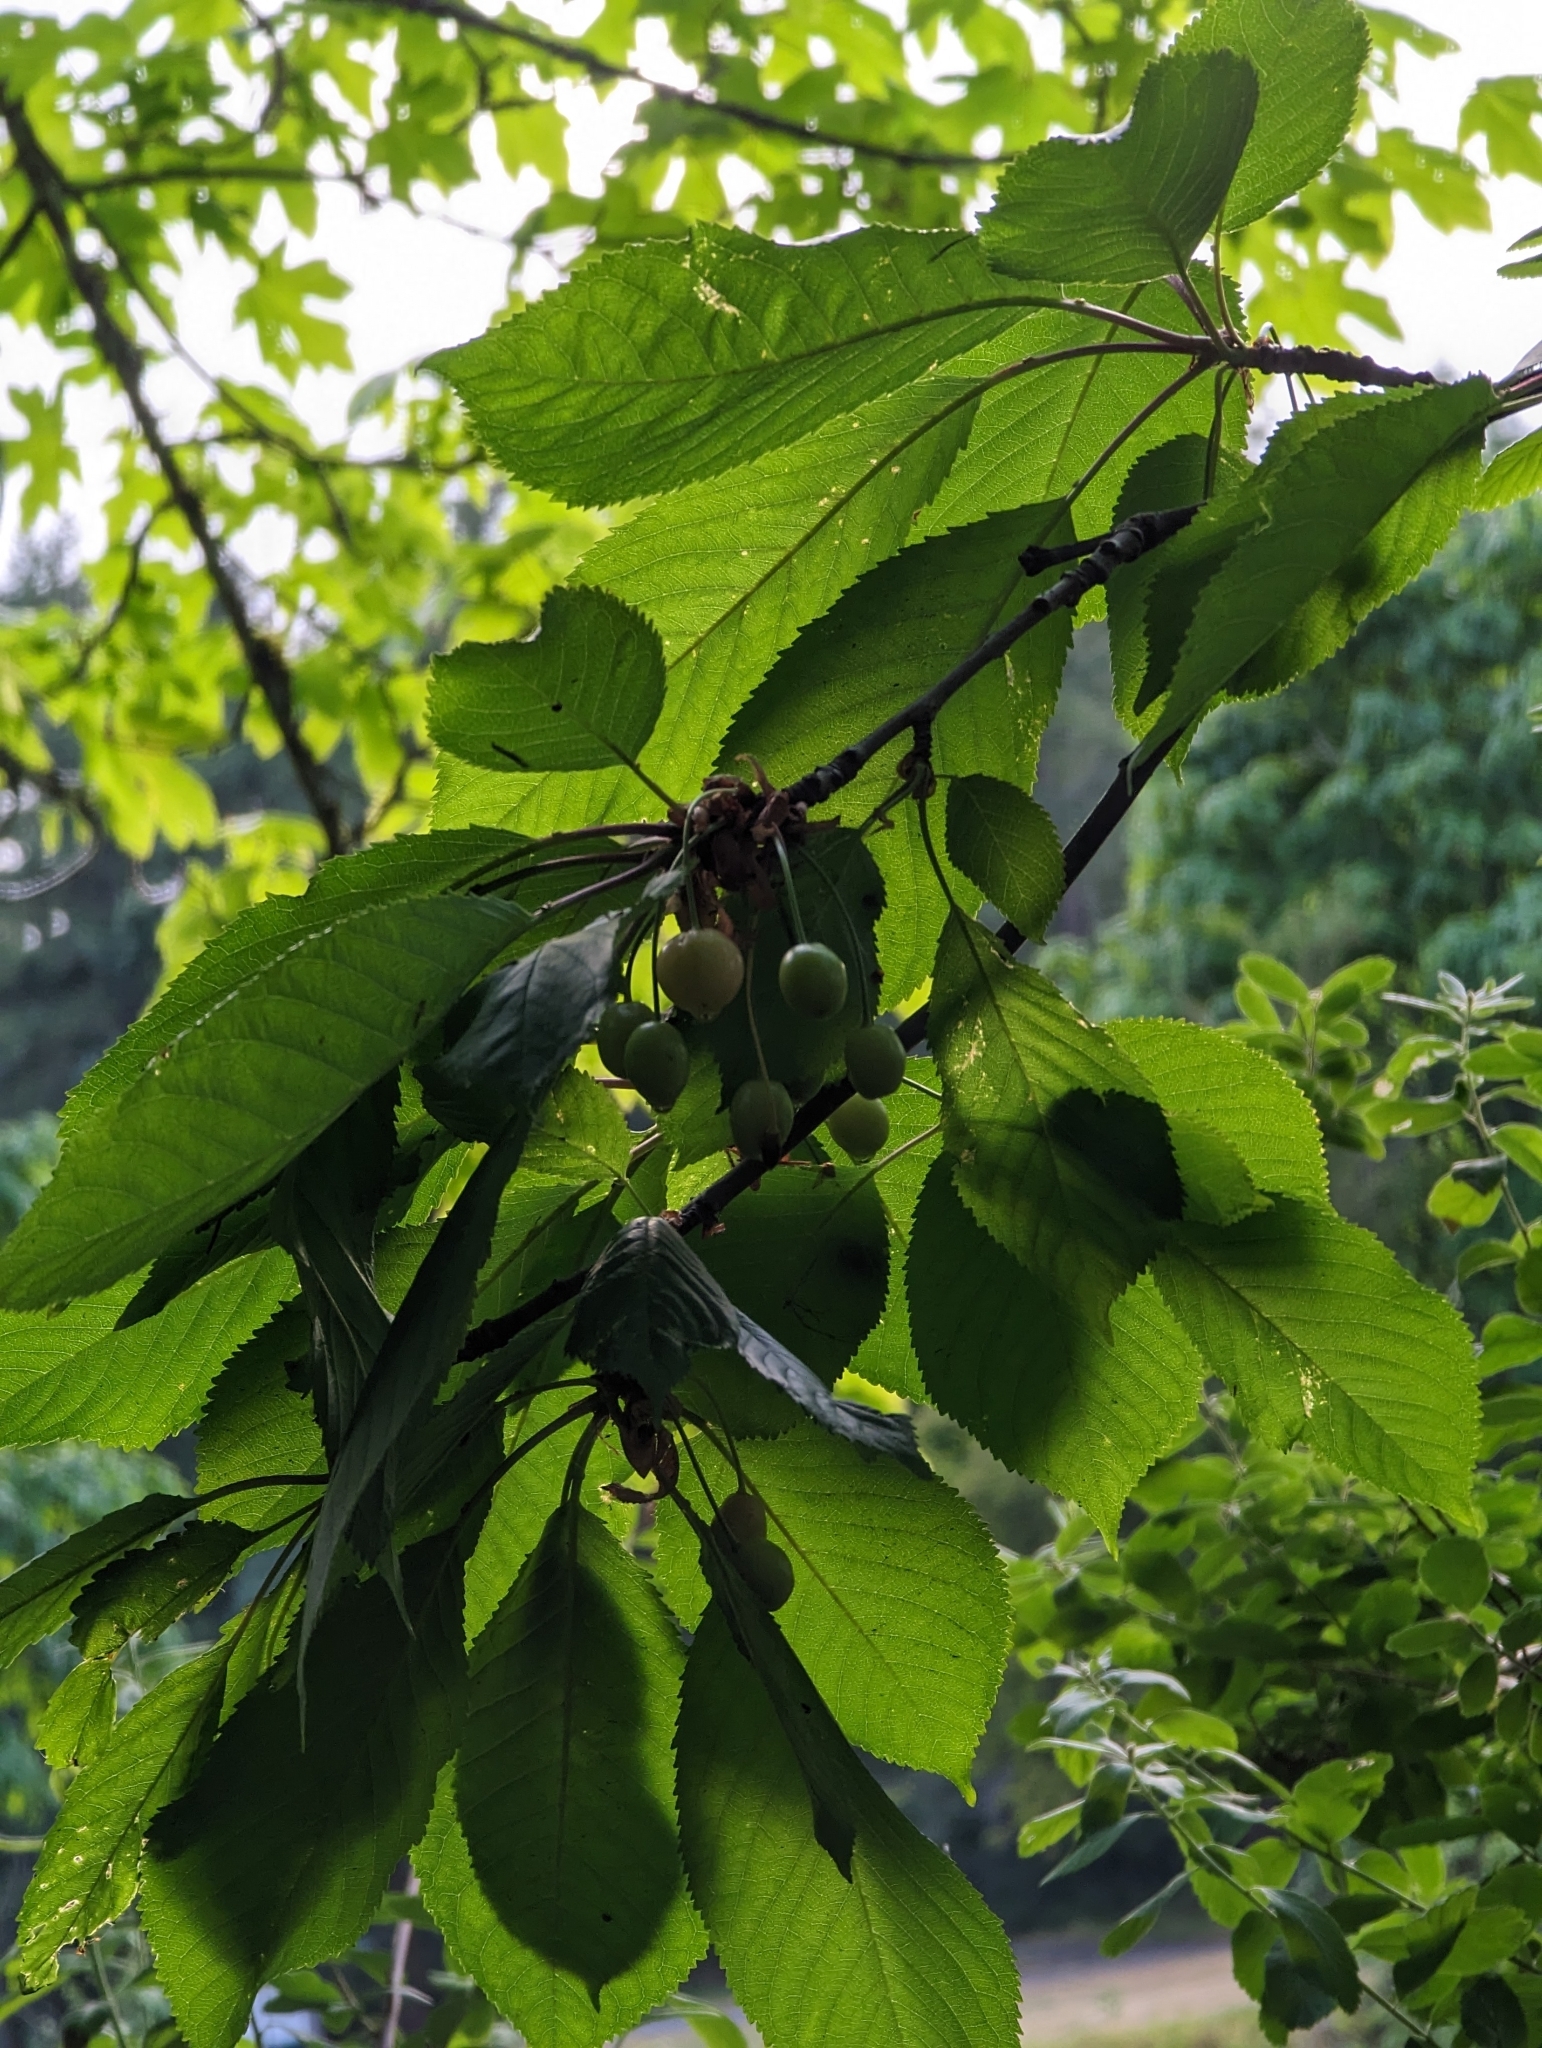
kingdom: Plantae
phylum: Tracheophyta
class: Magnoliopsida
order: Rosales
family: Rosaceae
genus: Prunus
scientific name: Prunus avium
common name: Sweet cherry
